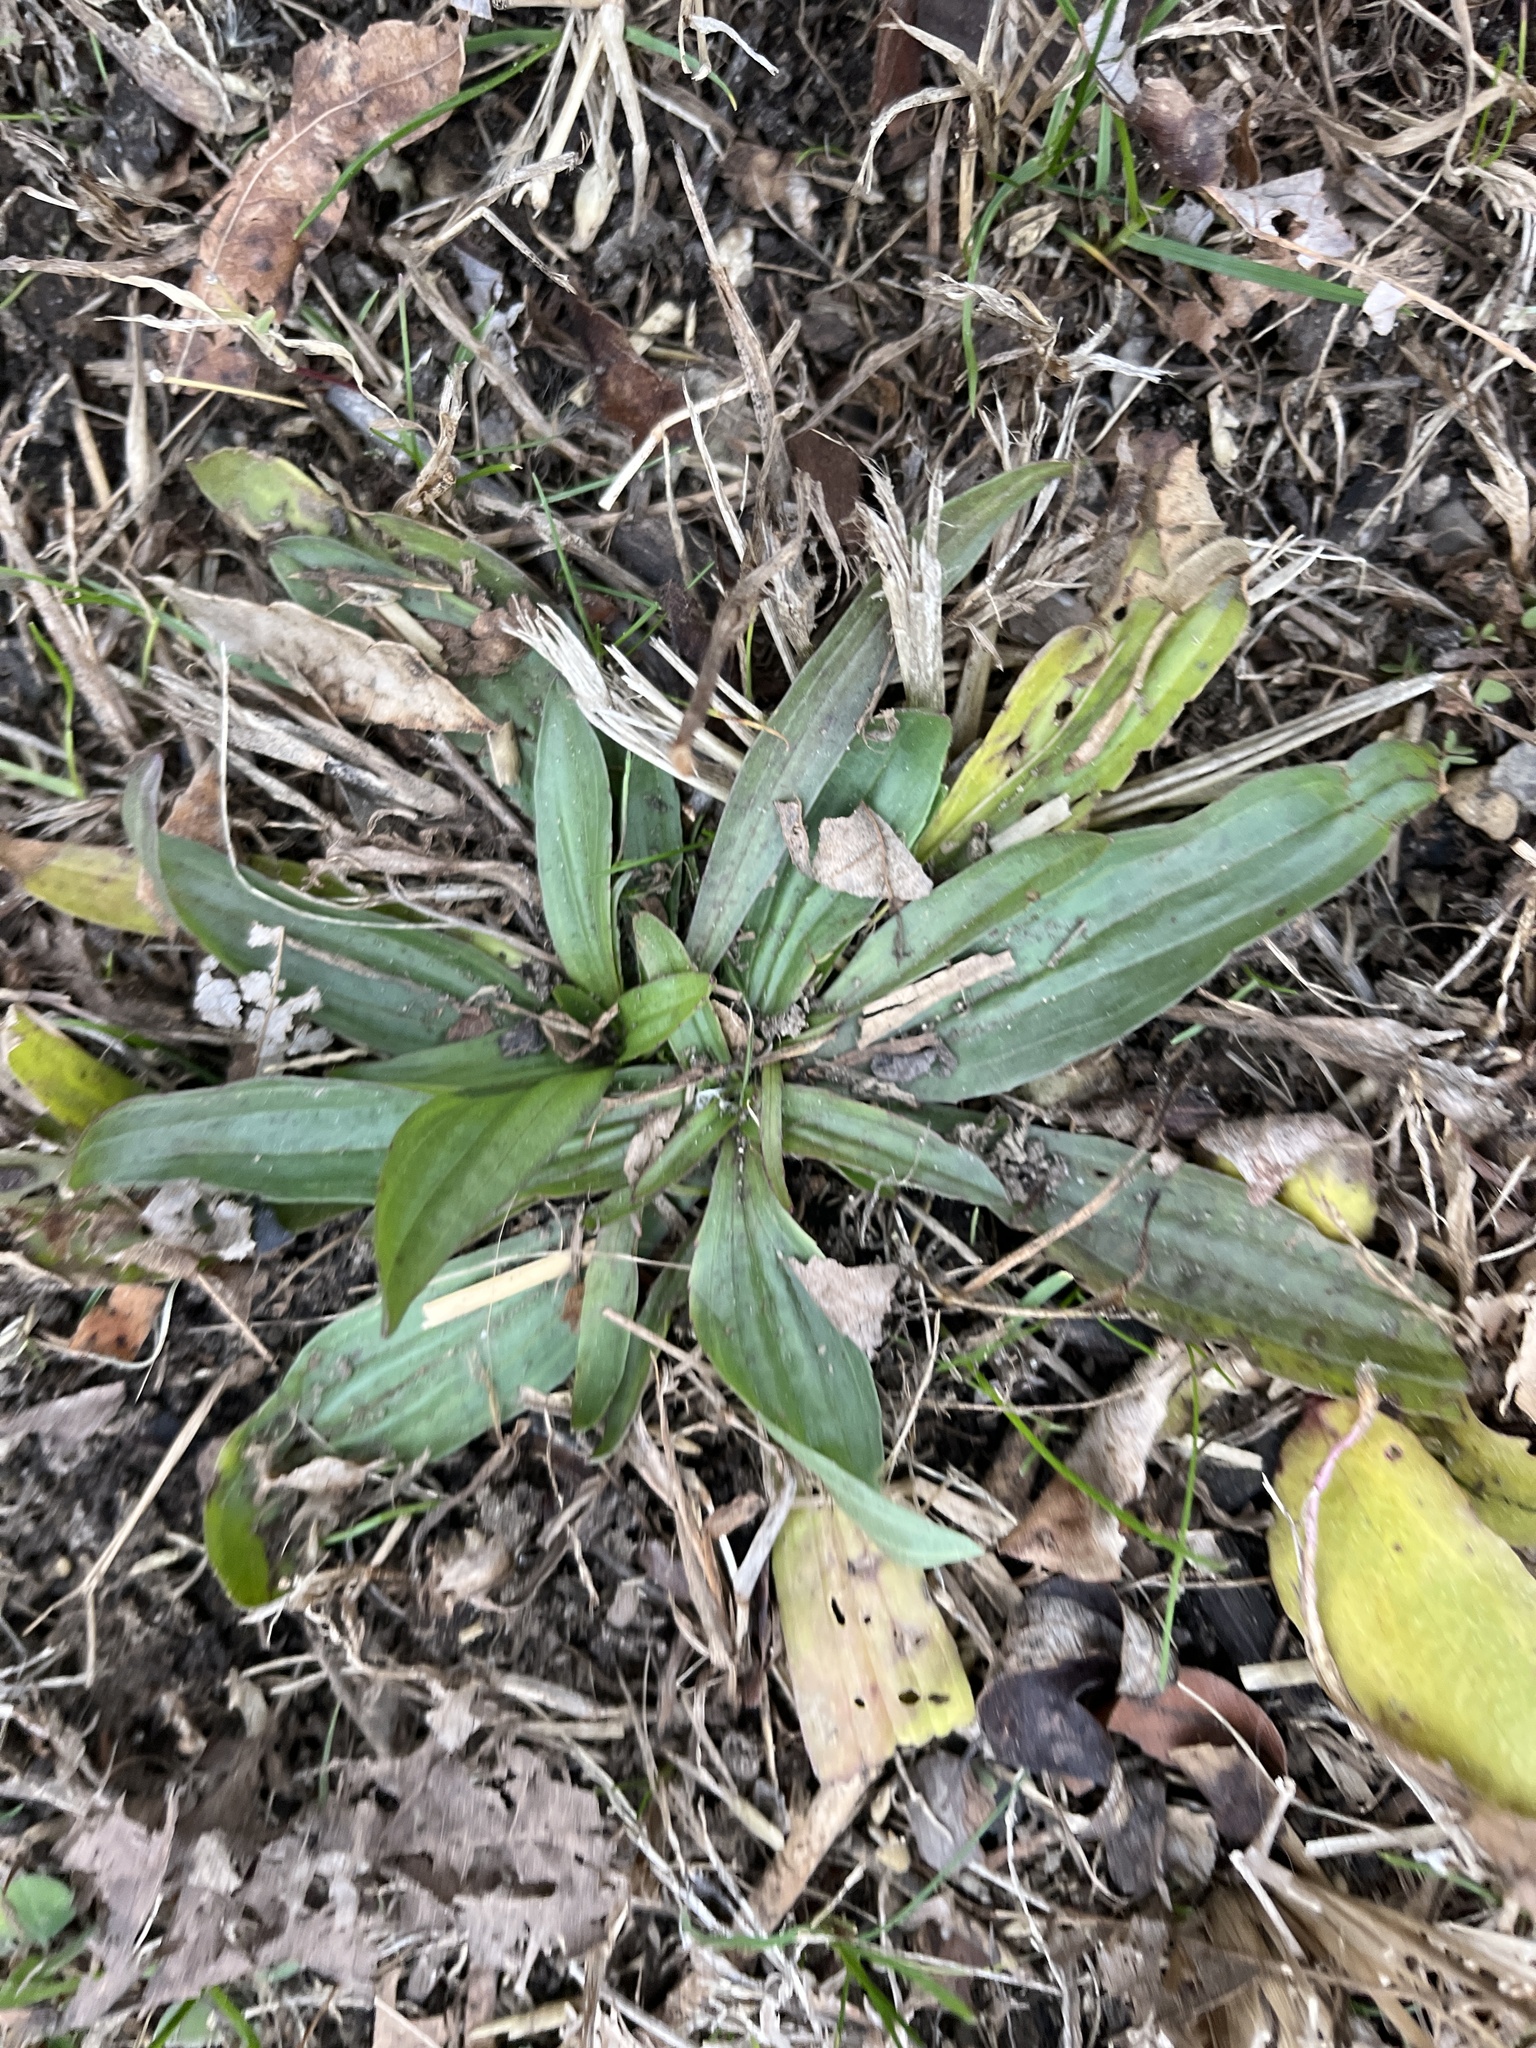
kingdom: Plantae
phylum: Tracheophyta
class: Magnoliopsida
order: Lamiales
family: Plantaginaceae
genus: Plantago
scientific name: Plantago lanceolata
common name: Ribwort plantain
